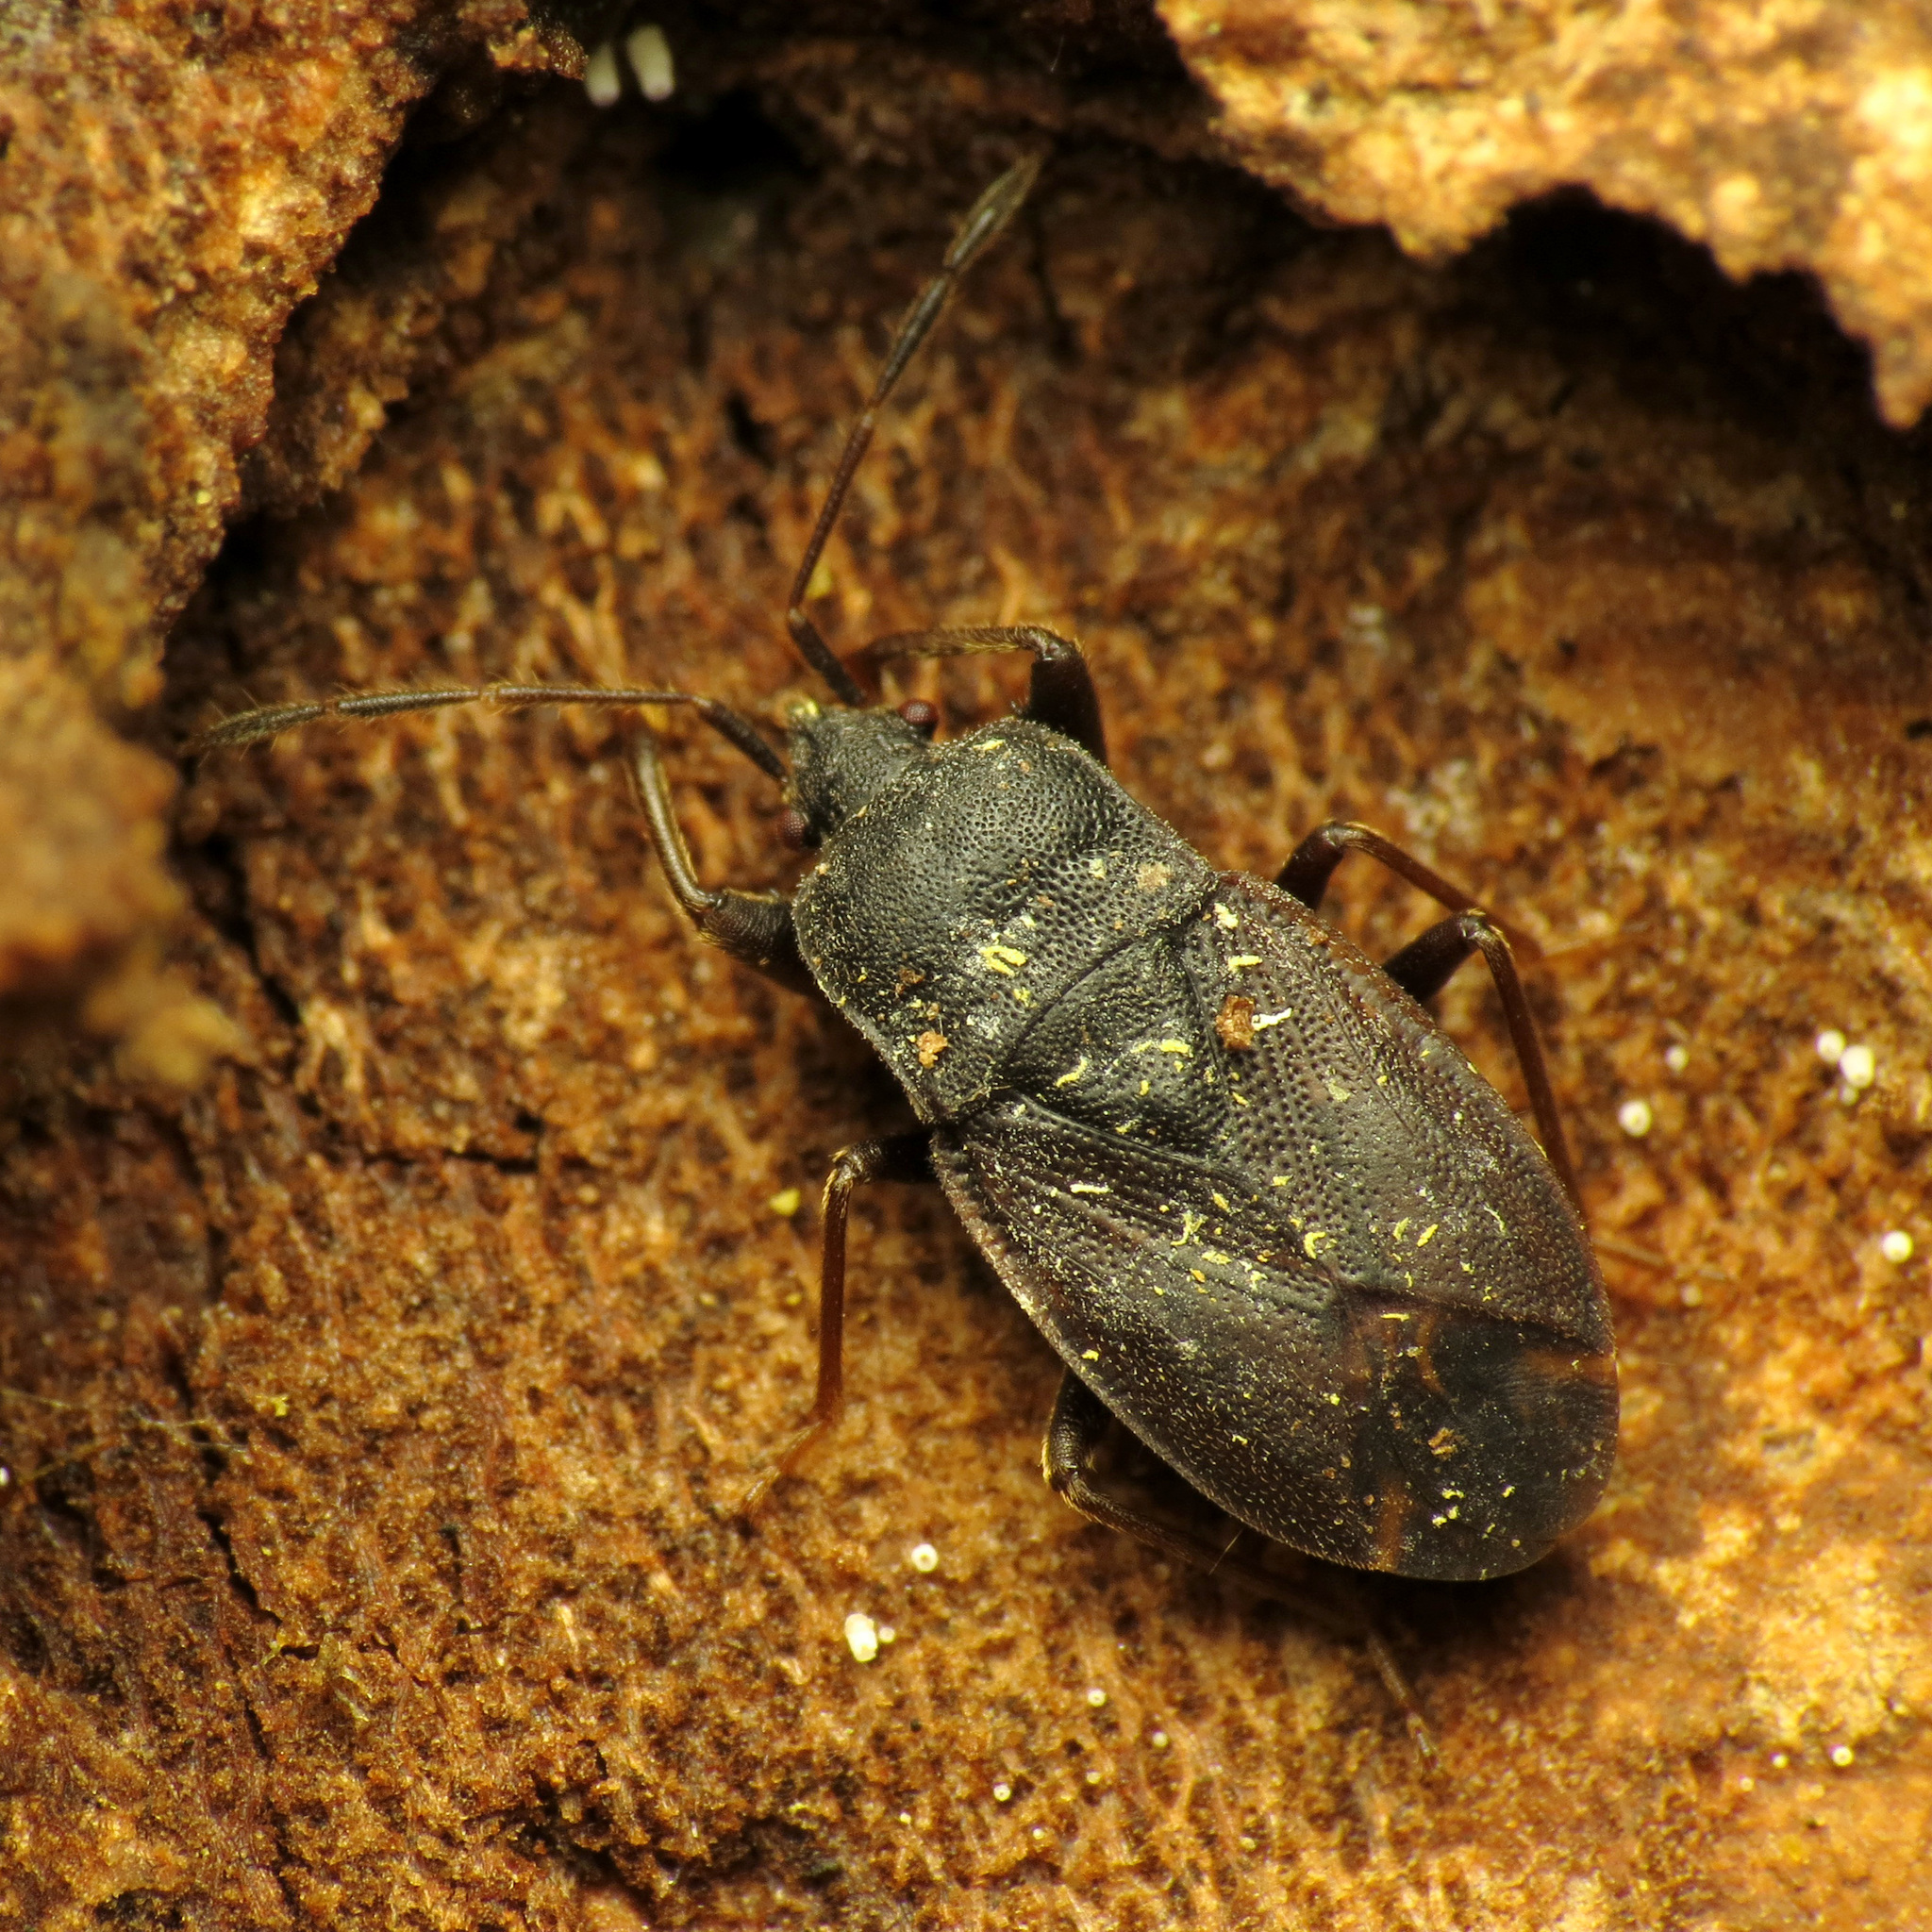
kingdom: Animalia
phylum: Arthropoda
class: Insecta
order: Hemiptera
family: Rhyparochromidae
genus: Drymus
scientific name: Drymus crassus
